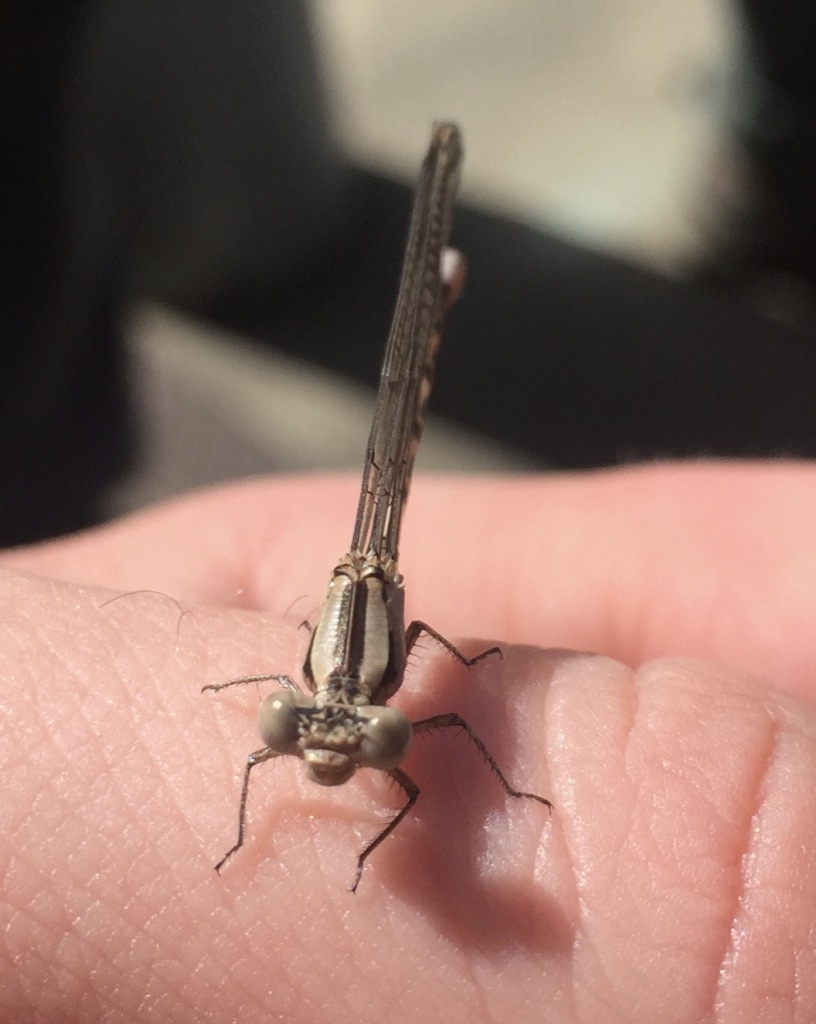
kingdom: Animalia
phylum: Arthropoda
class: Insecta
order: Odonata
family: Coenagrionidae
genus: Argia
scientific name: Argia vivida
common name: Vivid dancer
